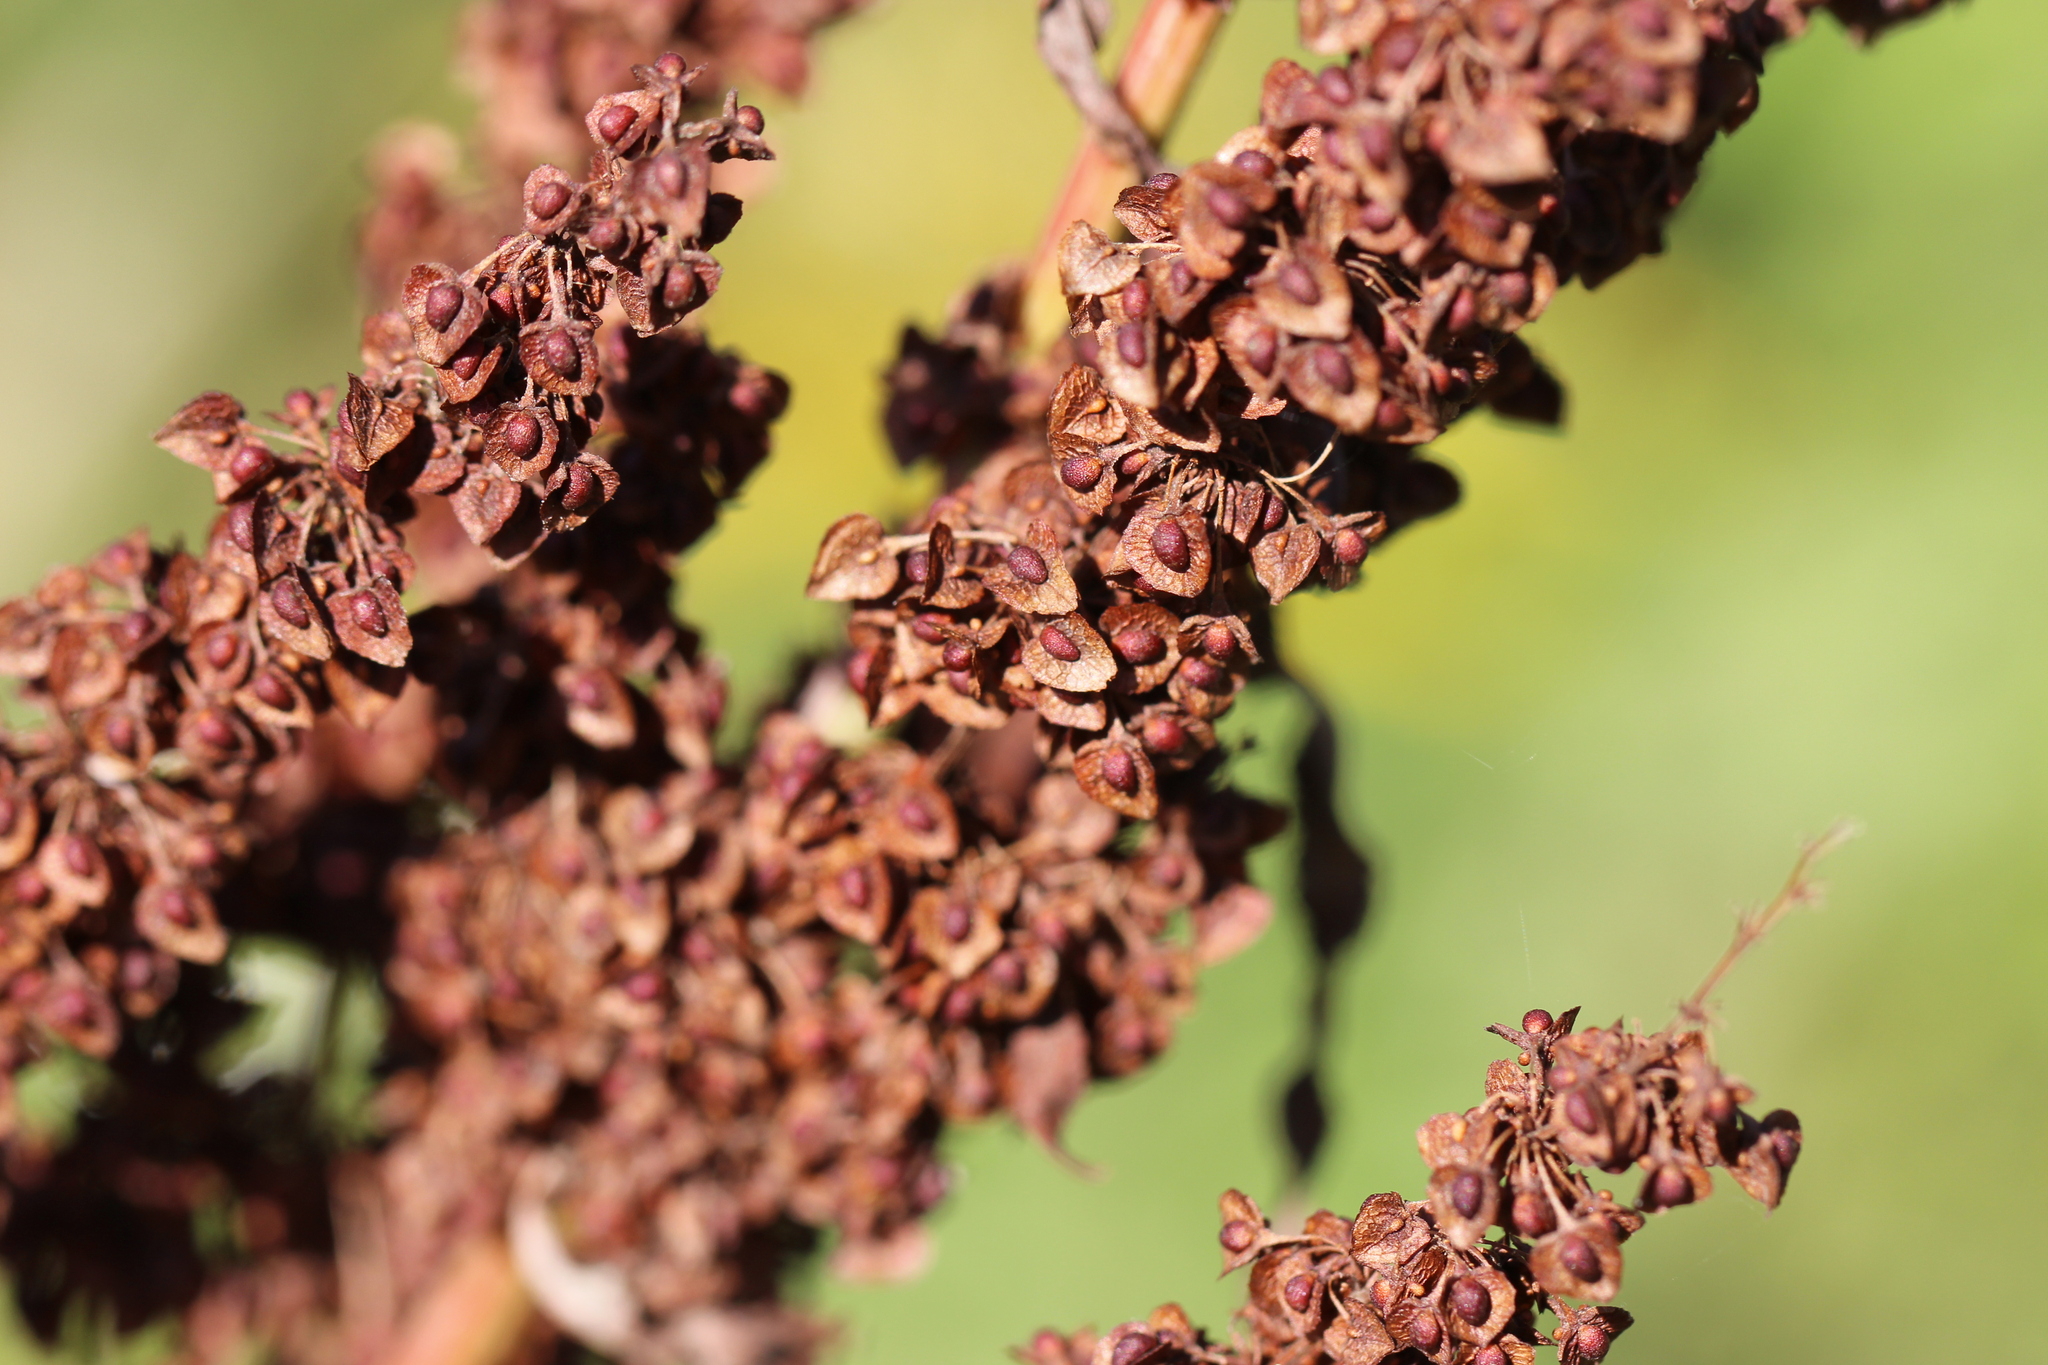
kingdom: Plantae
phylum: Tracheophyta
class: Magnoliopsida
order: Caryophyllales
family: Polygonaceae
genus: Rumex
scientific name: Rumex crispus
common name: Curled dock
